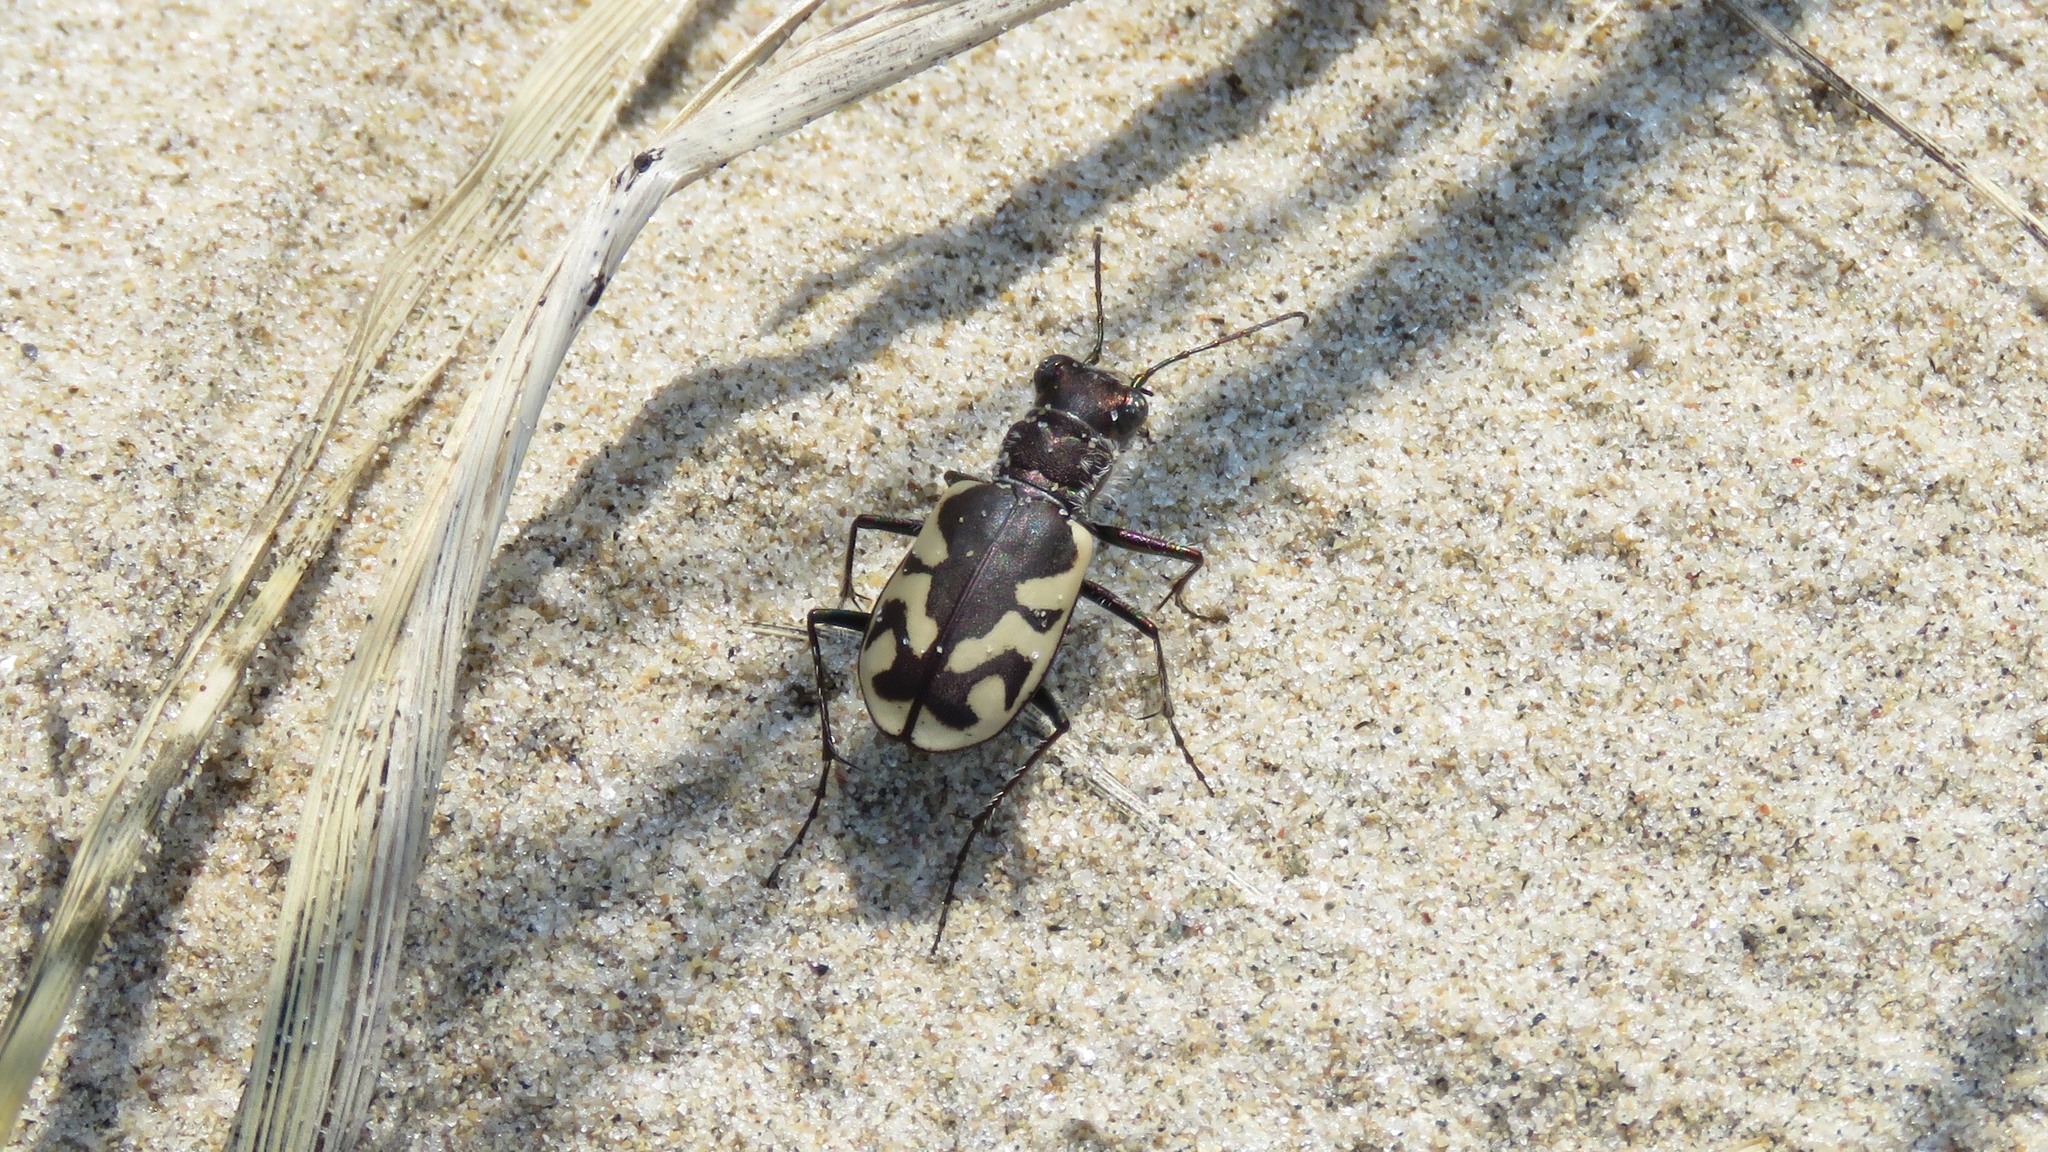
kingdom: Animalia
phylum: Arthropoda
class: Insecta
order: Coleoptera
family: Carabidae
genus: Cicindela
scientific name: Cicindela formosa
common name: Big sand tiger beetle
